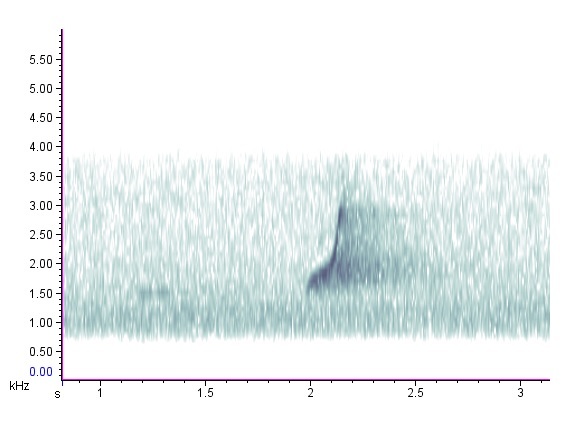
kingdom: Animalia
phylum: Chordata
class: Aves
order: Galliformes
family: Odontophoridae
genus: Colinus
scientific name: Colinus virginianus
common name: Northern bobwhite
